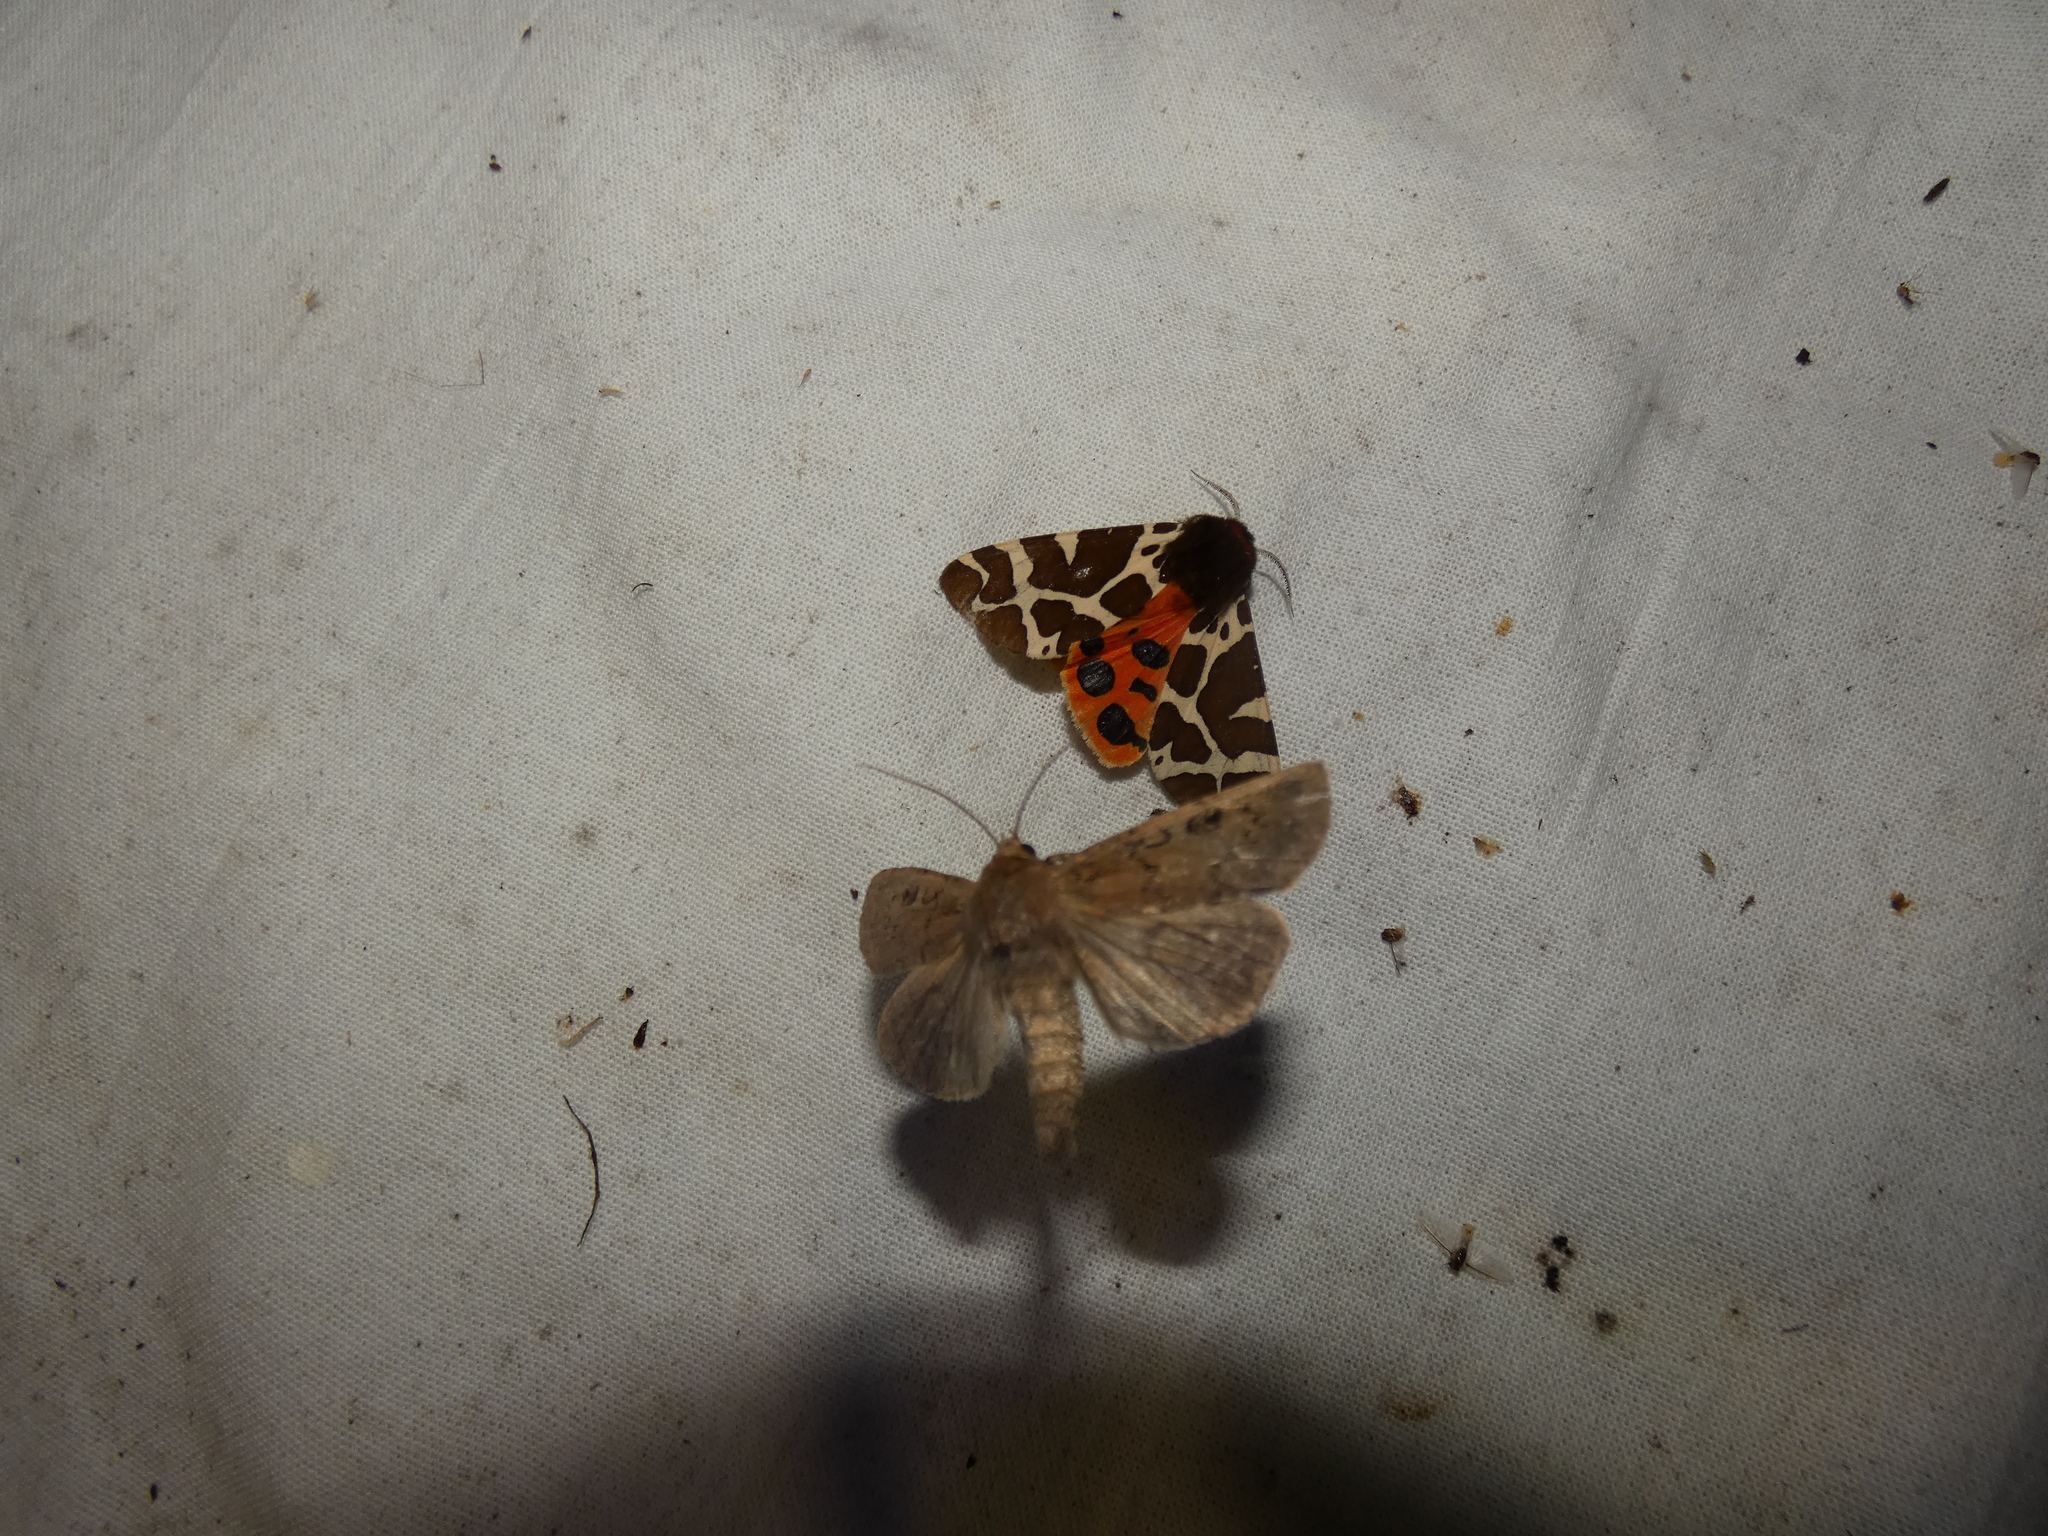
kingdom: Animalia
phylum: Arthropoda
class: Insecta
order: Lepidoptera
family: Noctuidae
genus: Graphiphora
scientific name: Graphiphora augur
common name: Double dart
